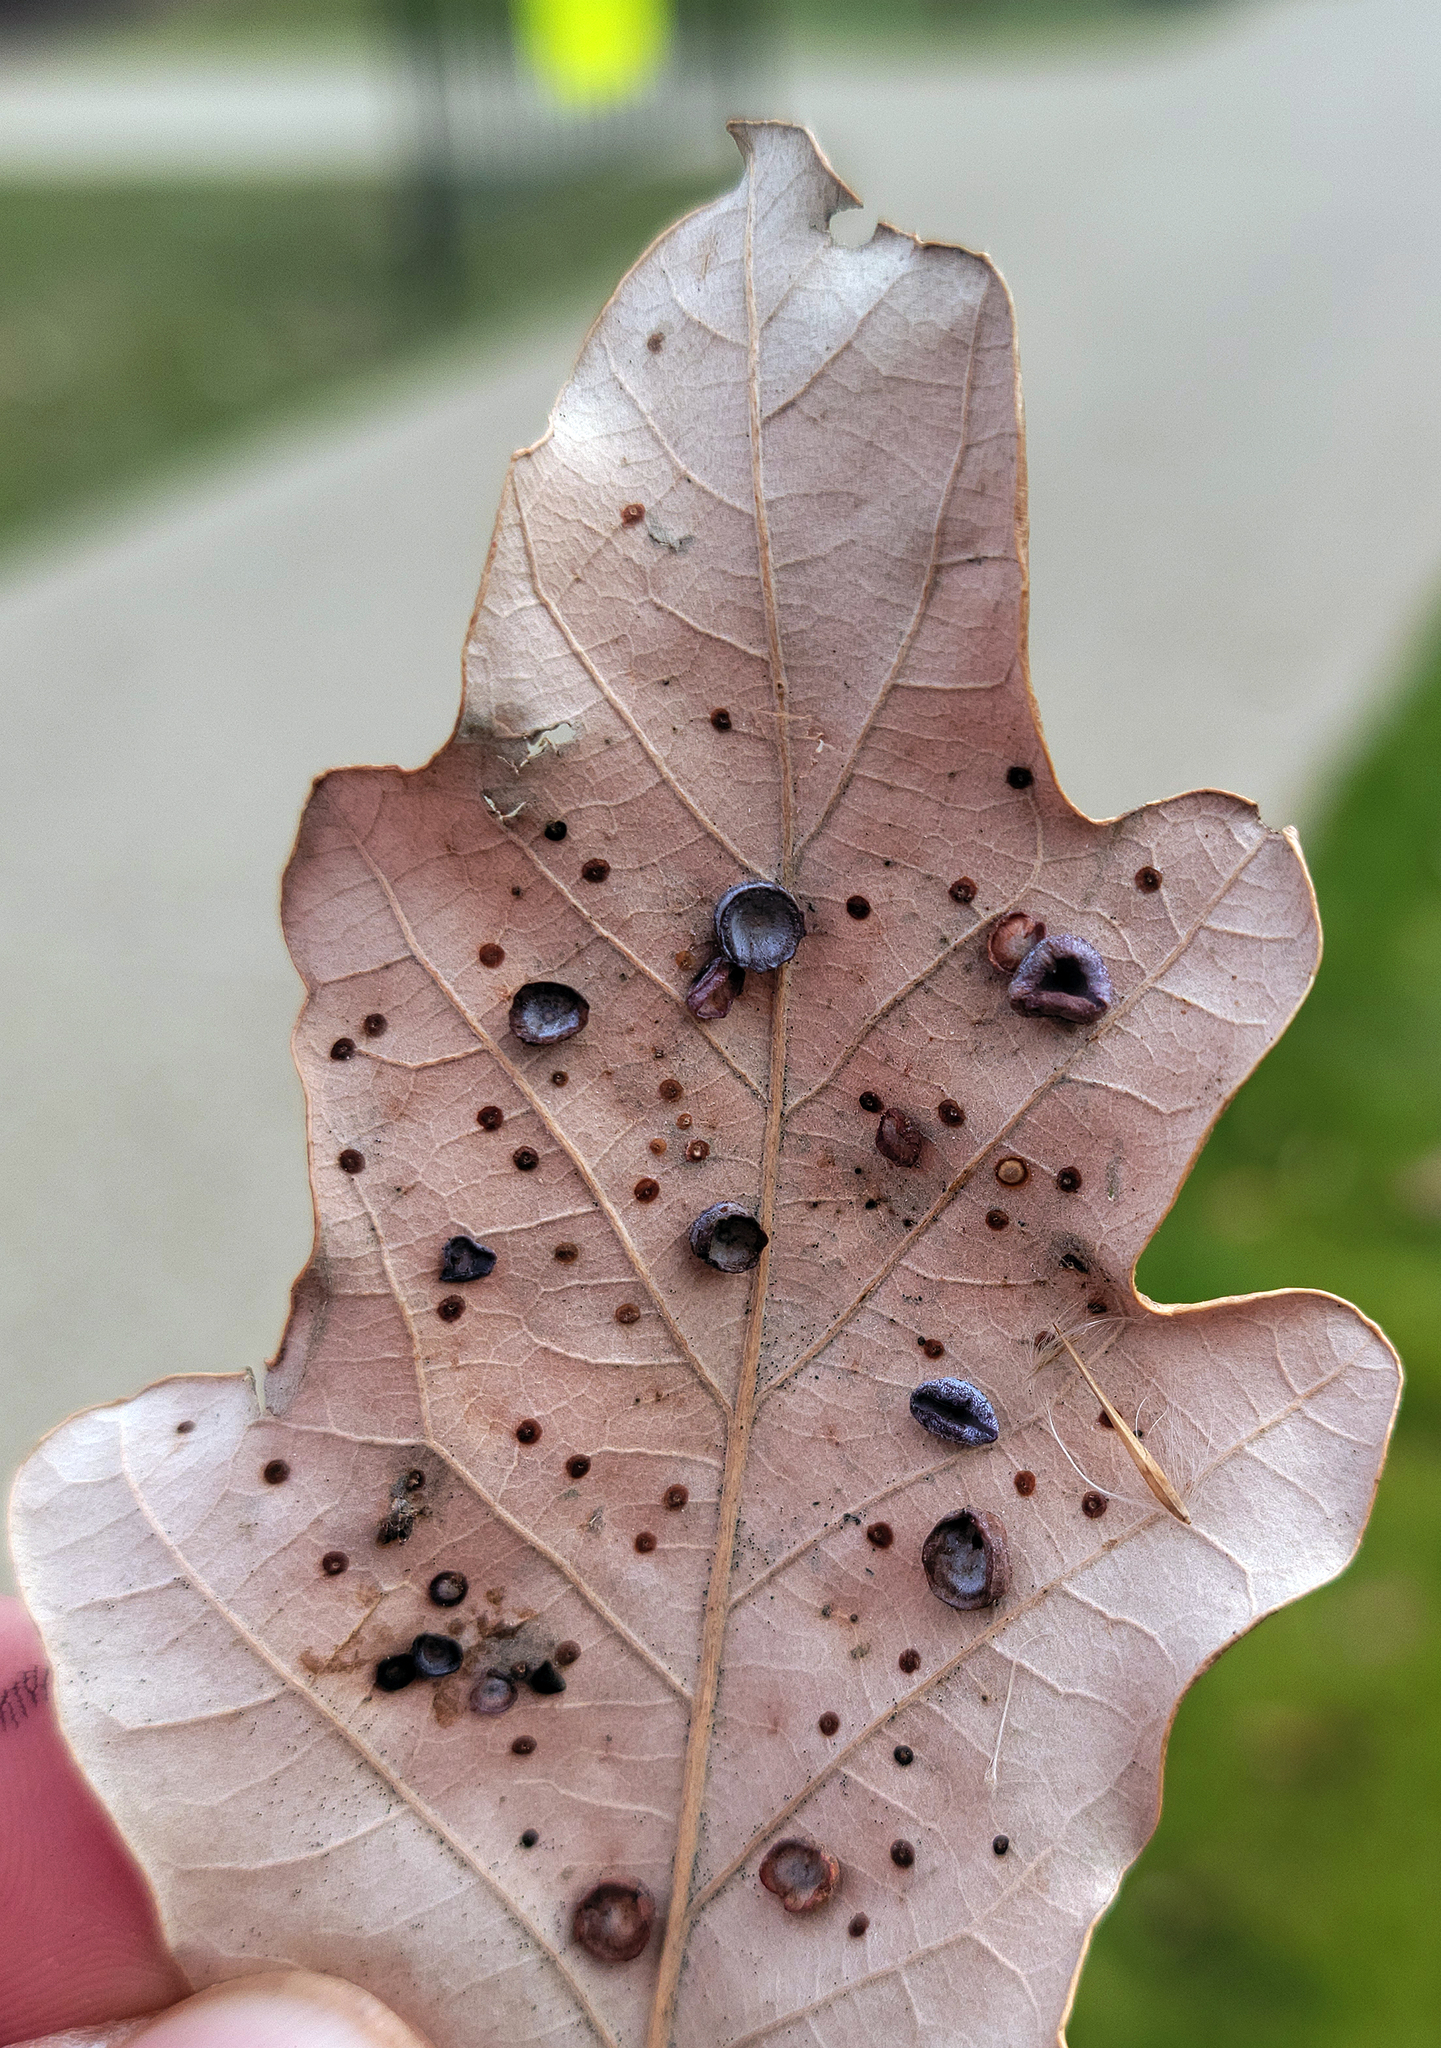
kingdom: Animalia
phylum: Arthropoda
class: Insecta
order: Hymenoptera
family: Cynipidae
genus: Phylloteras
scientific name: Phylloteras
